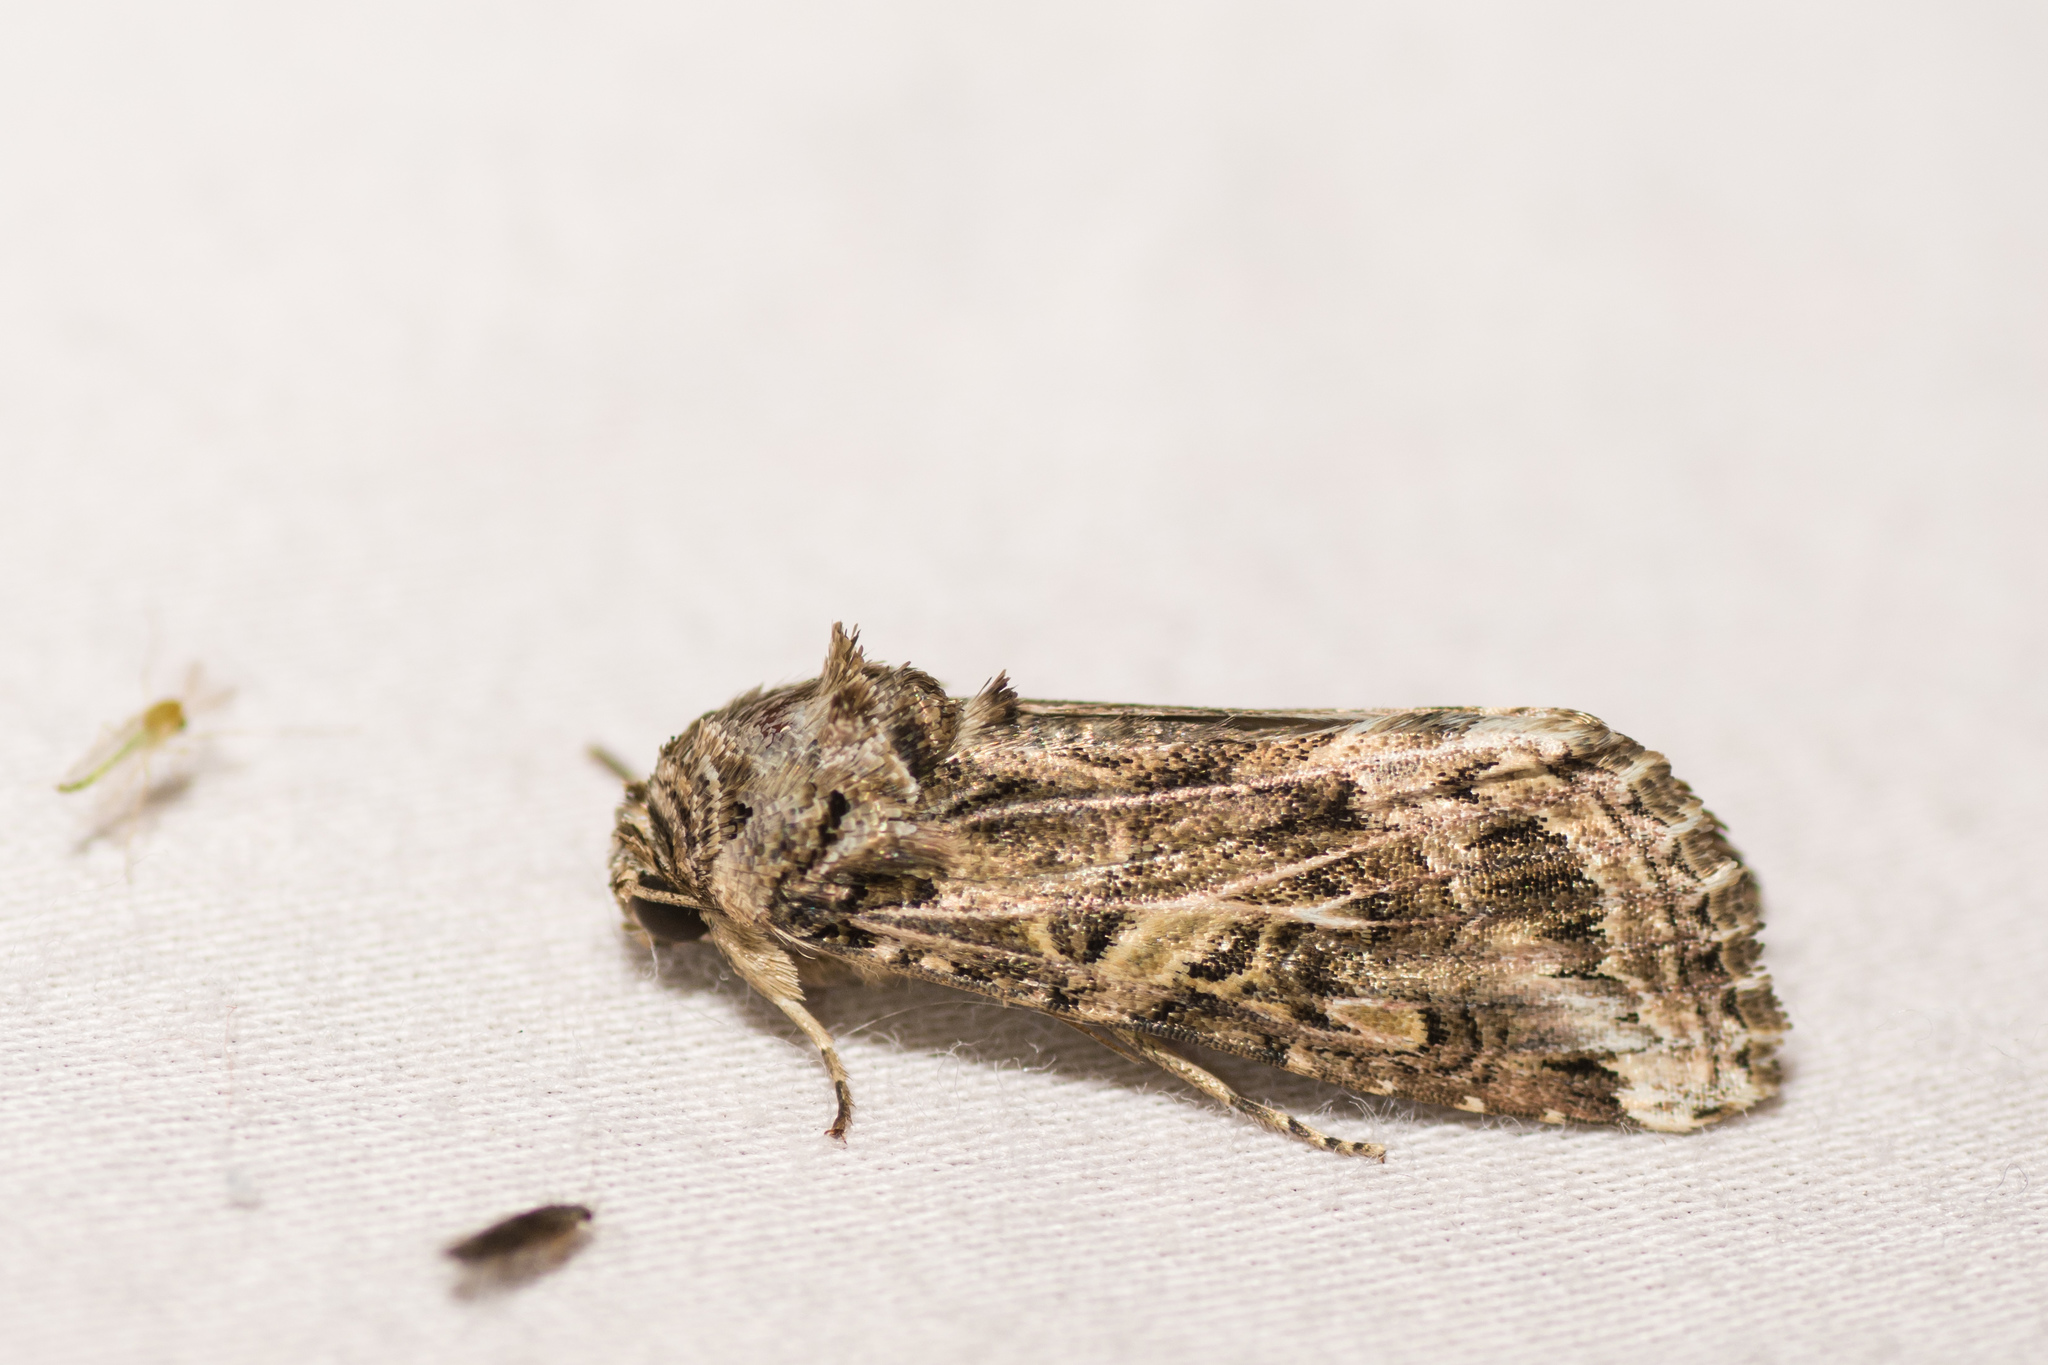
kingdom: Animalia
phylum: Arthropoda
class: Insecta
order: Lepidoptera
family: Noctuidae
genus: Spodoptera
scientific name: Spodoptera ornithogalli
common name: Yellow-striped armyworm
